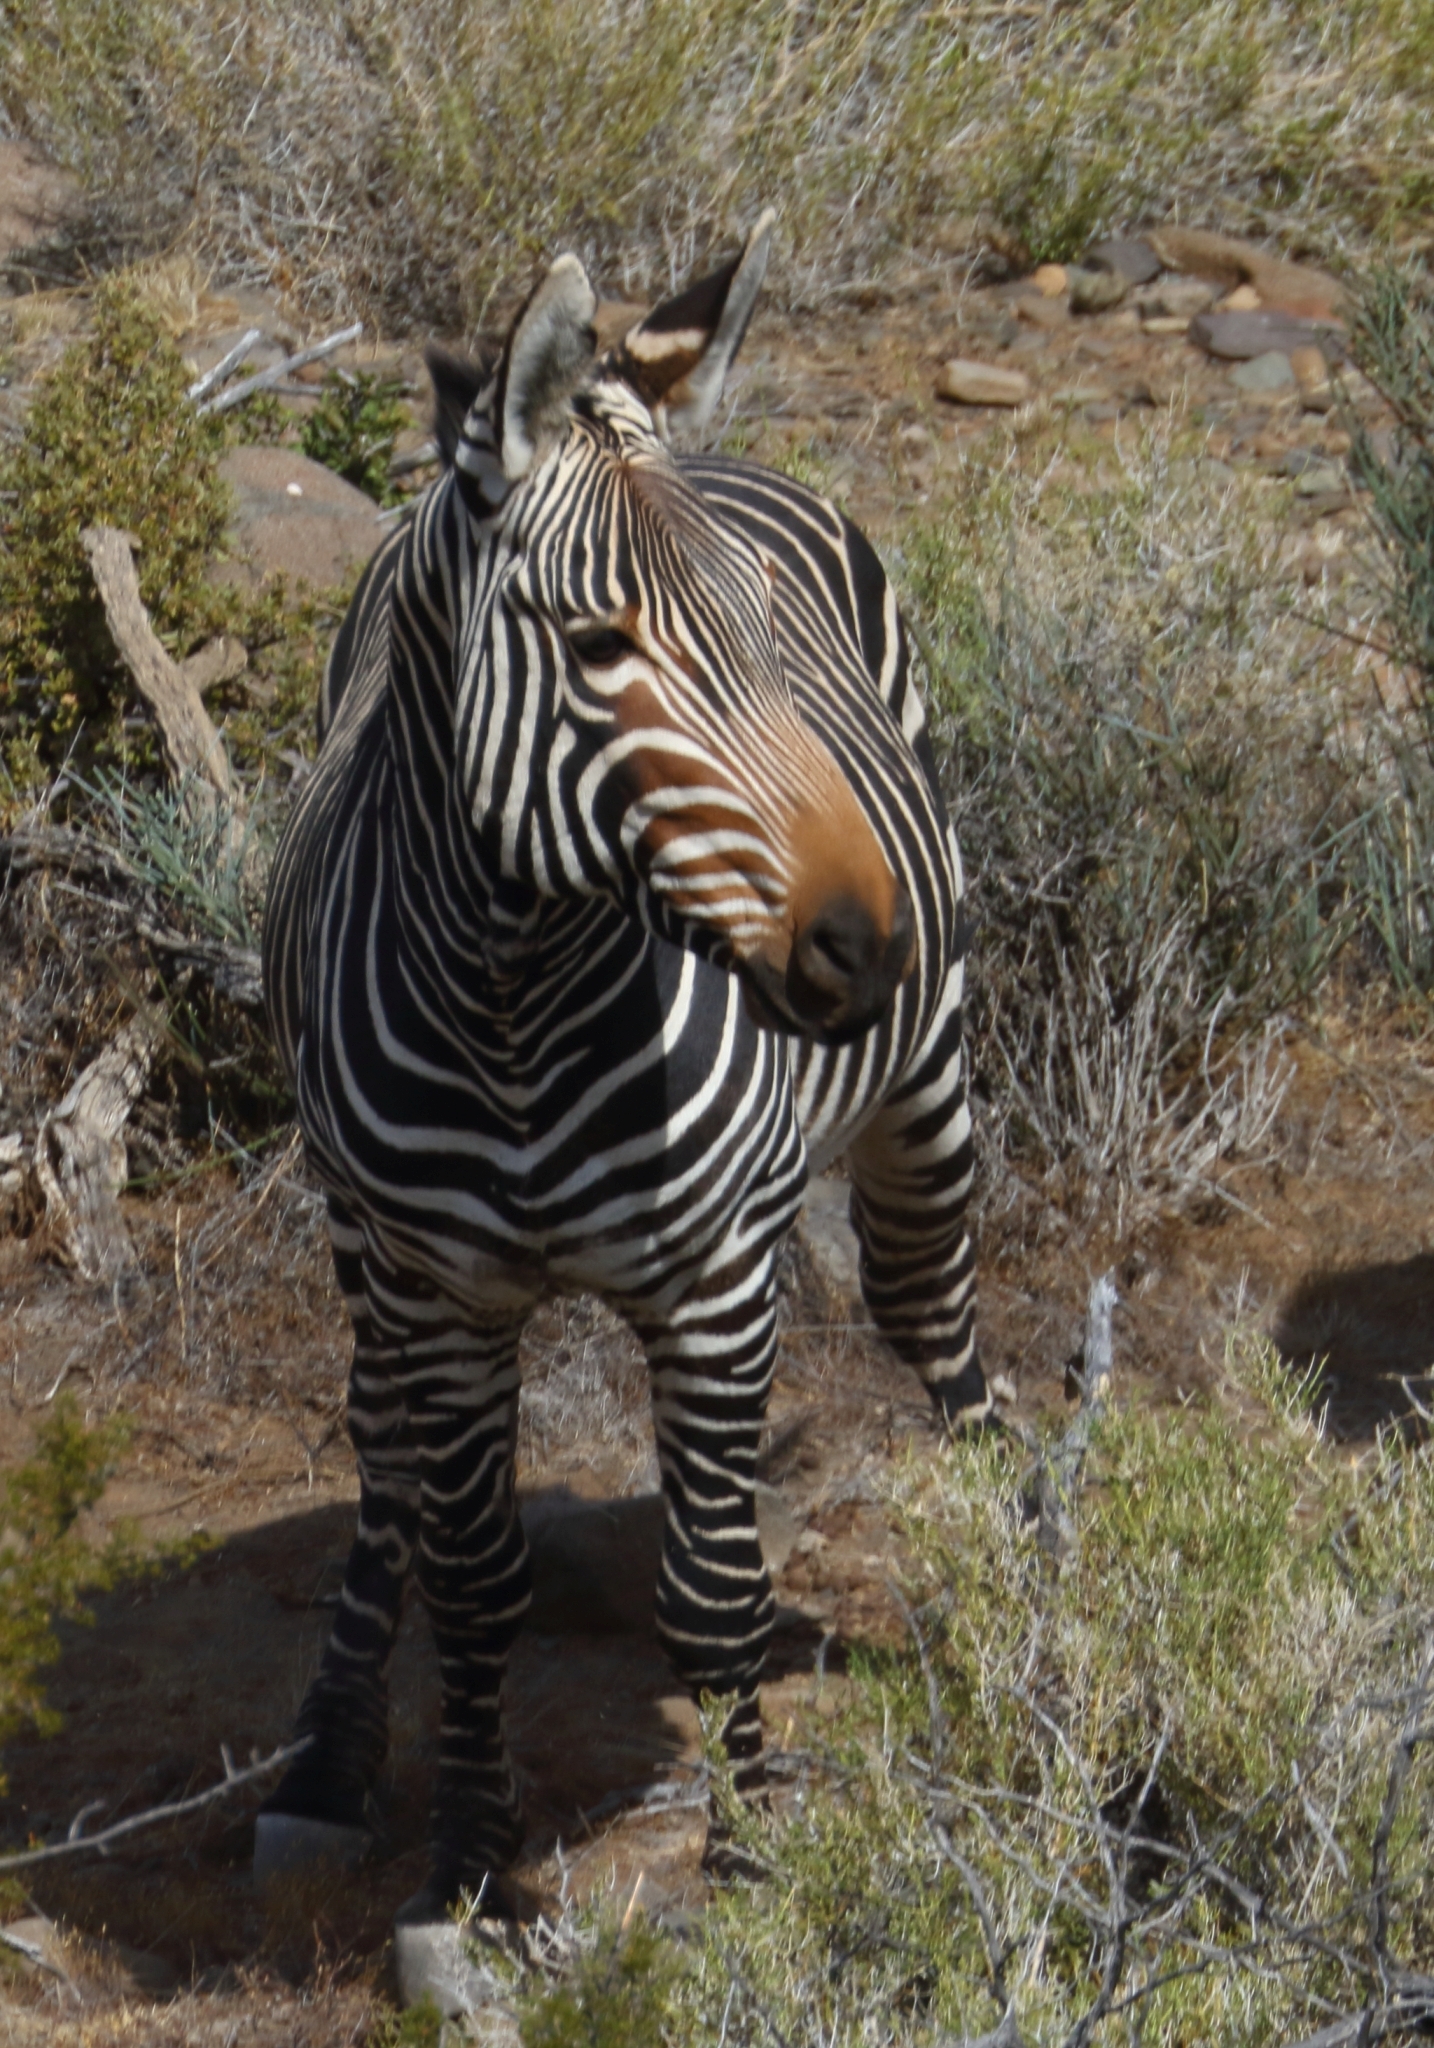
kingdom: Animalia
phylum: Chordata
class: Mammalia
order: Perissodactyla
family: Equidae
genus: Equus
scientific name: Equus zebra
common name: Mountain zebra
